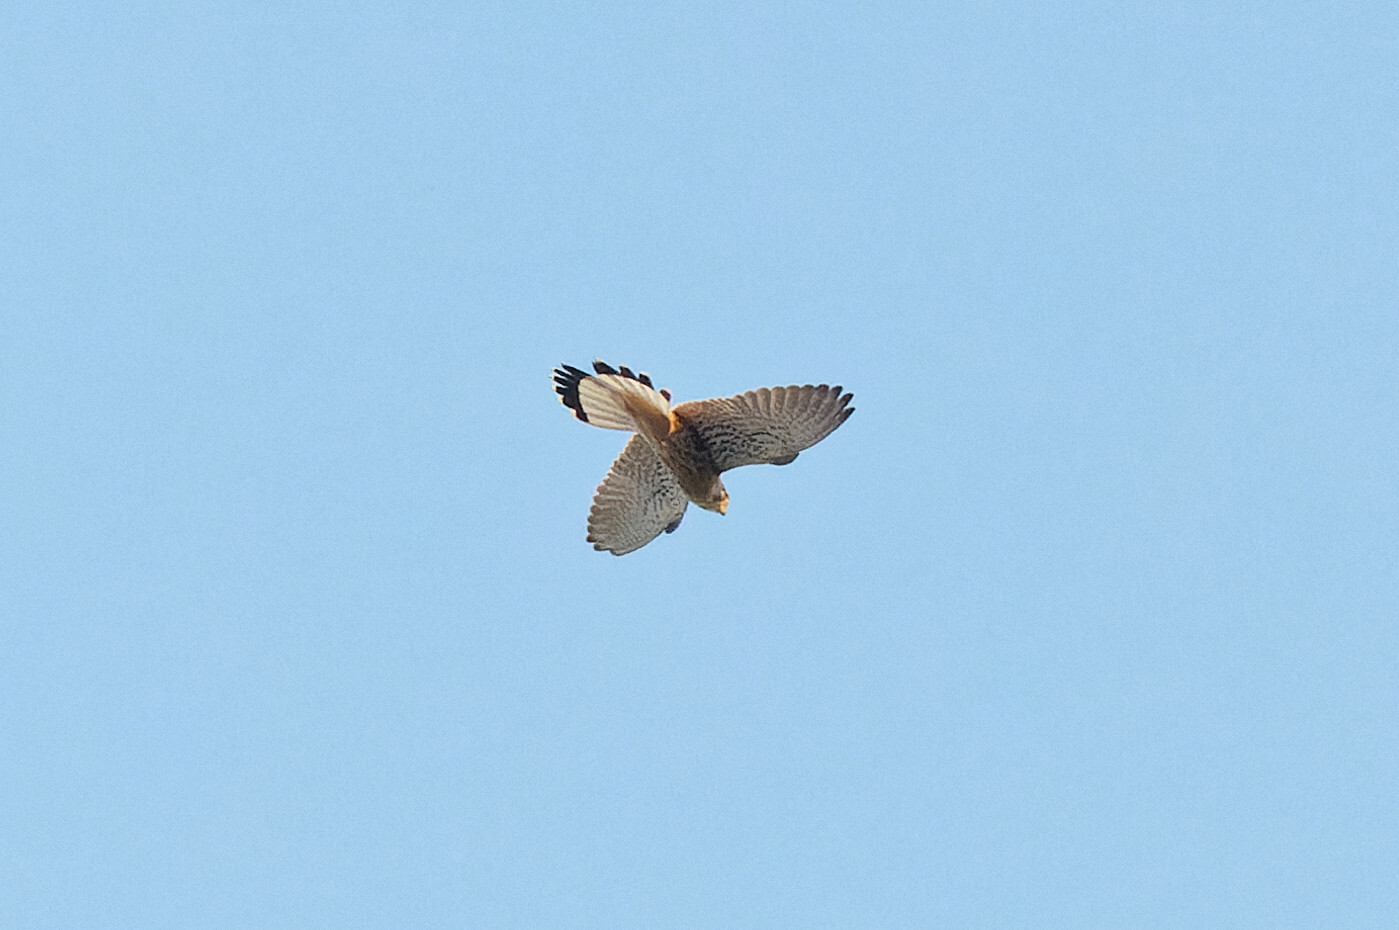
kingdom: Animalia
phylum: Chordata
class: Aves
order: Falconiformes
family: Falconidae
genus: Falco
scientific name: Falco tinnunculus
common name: Common kestrel
